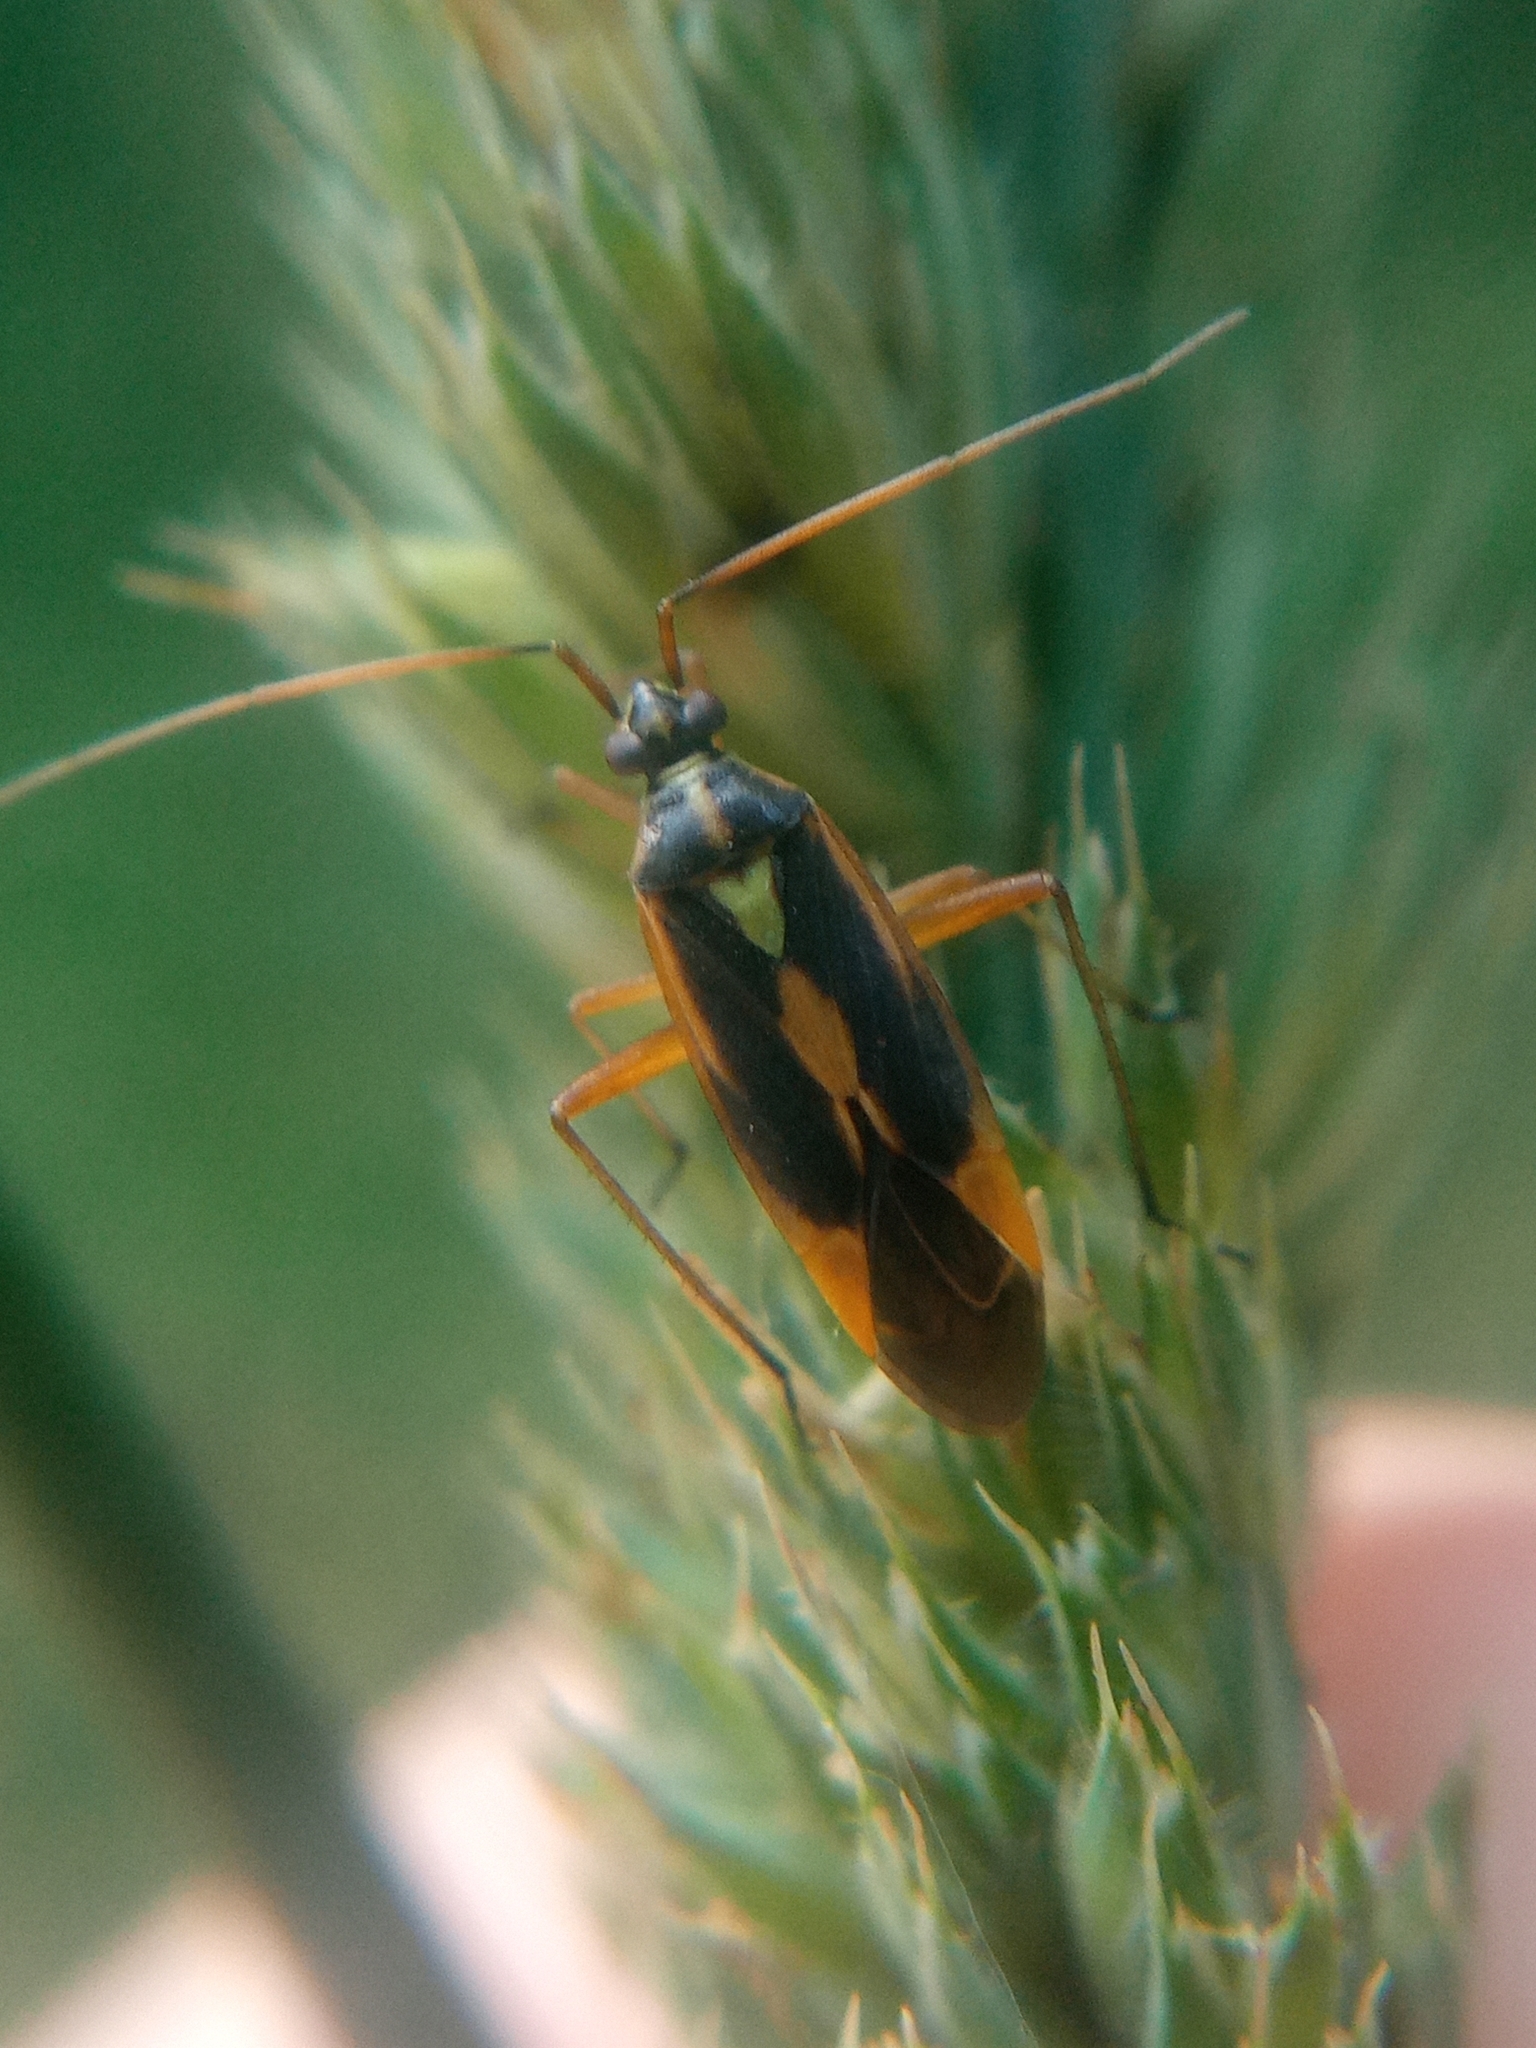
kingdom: Animalia
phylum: Arthropoda
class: Insecta
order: Hemiptera
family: Miridae
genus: Stenotus
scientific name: Stenotus binotatus
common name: Plant bug
